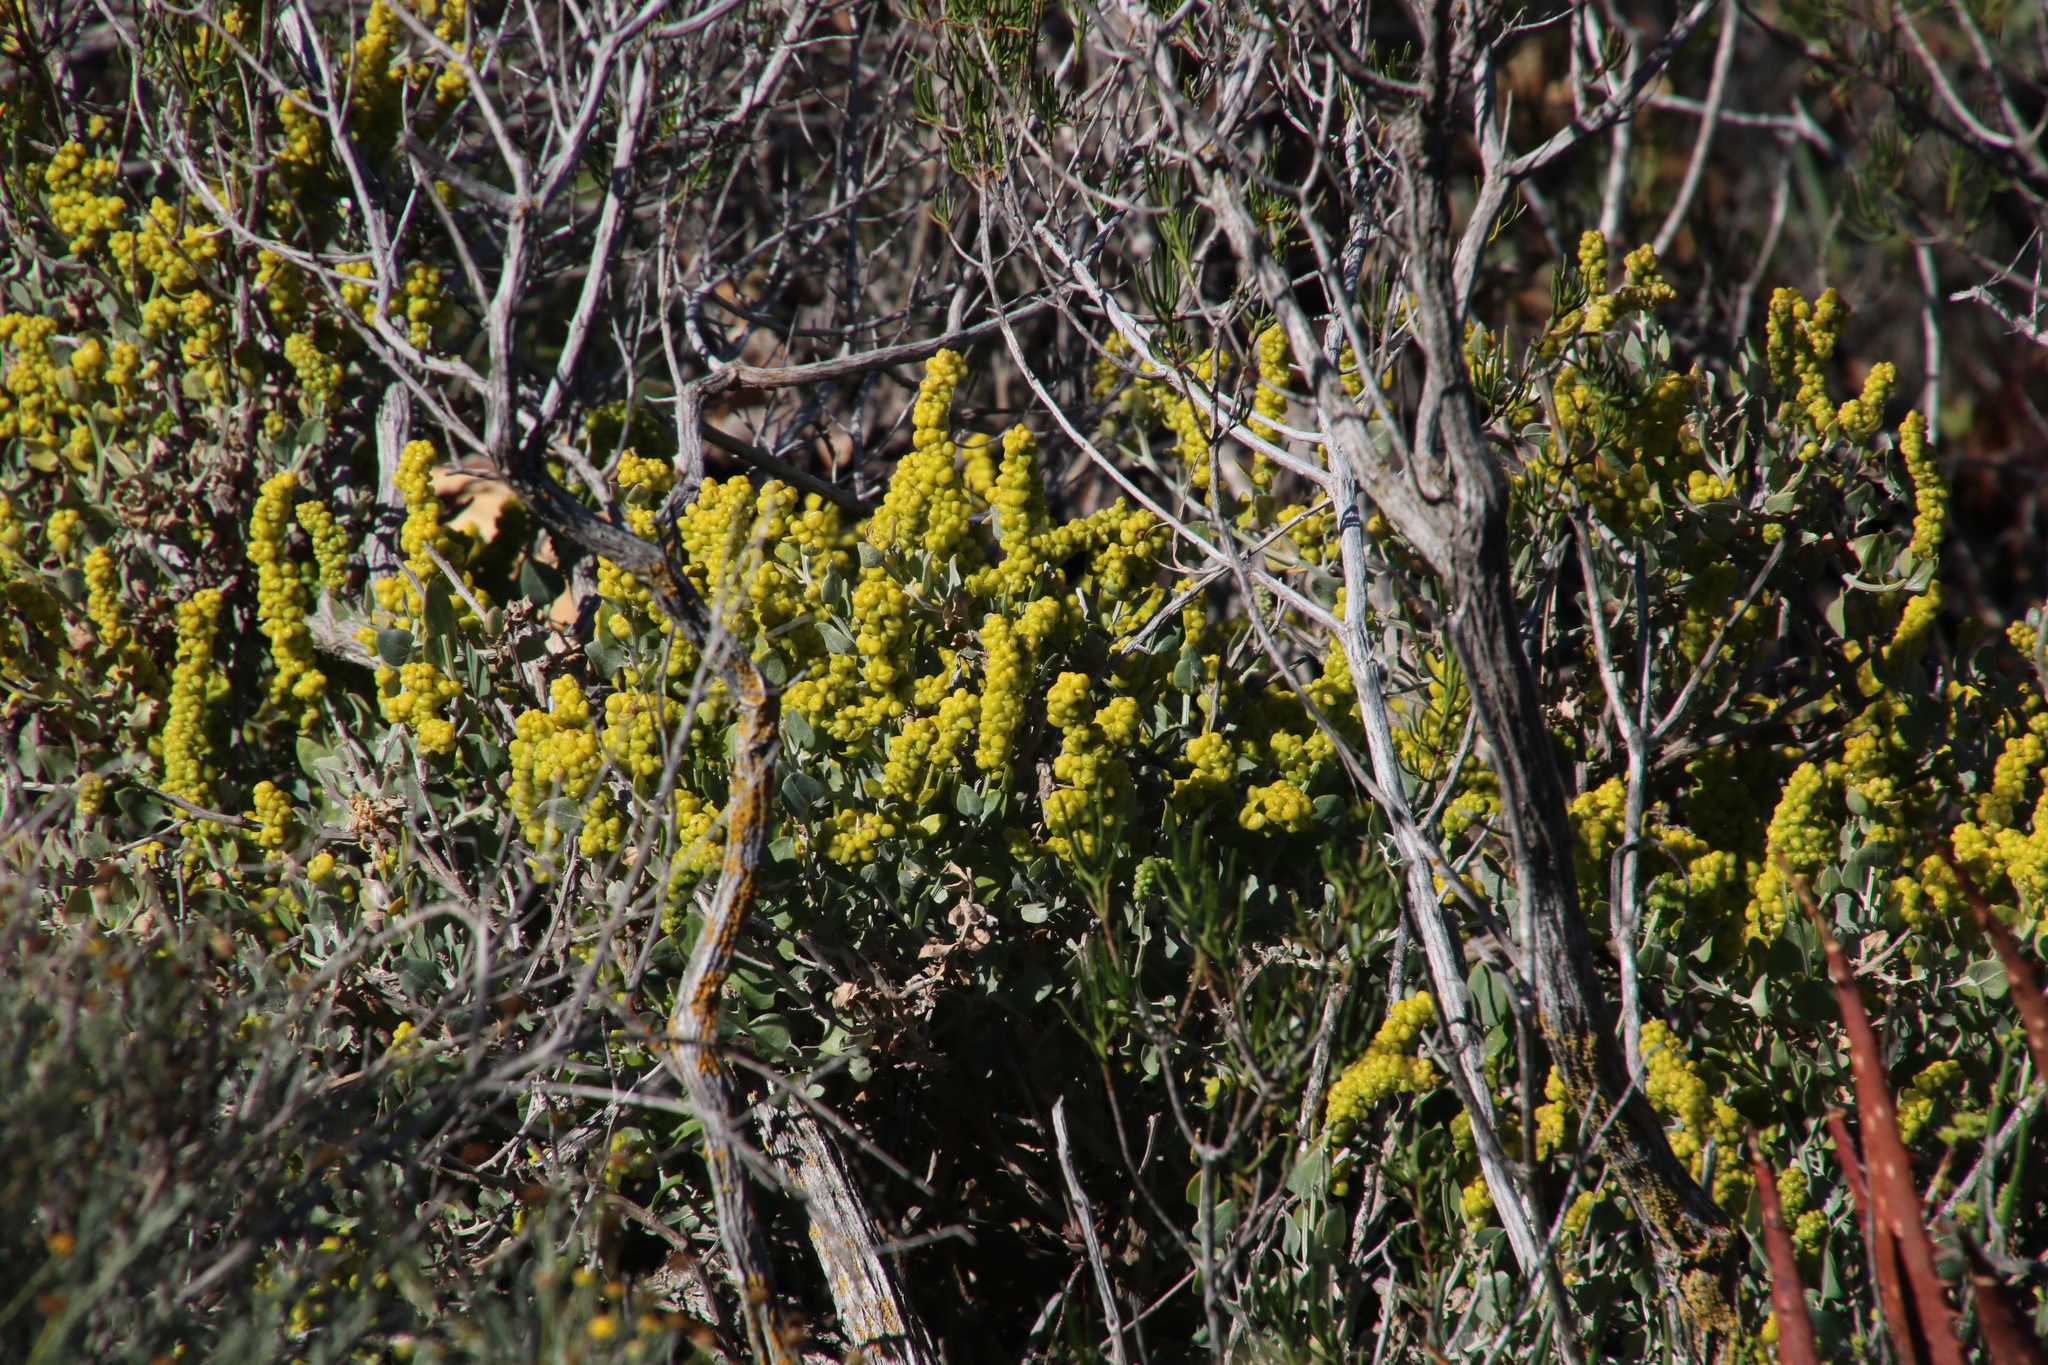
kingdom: Plantae
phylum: Tracheophyta
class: Magnoliopsida
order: Caryophyllales
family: Amaranthaceae
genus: Exomis
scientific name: Exomis albicans
